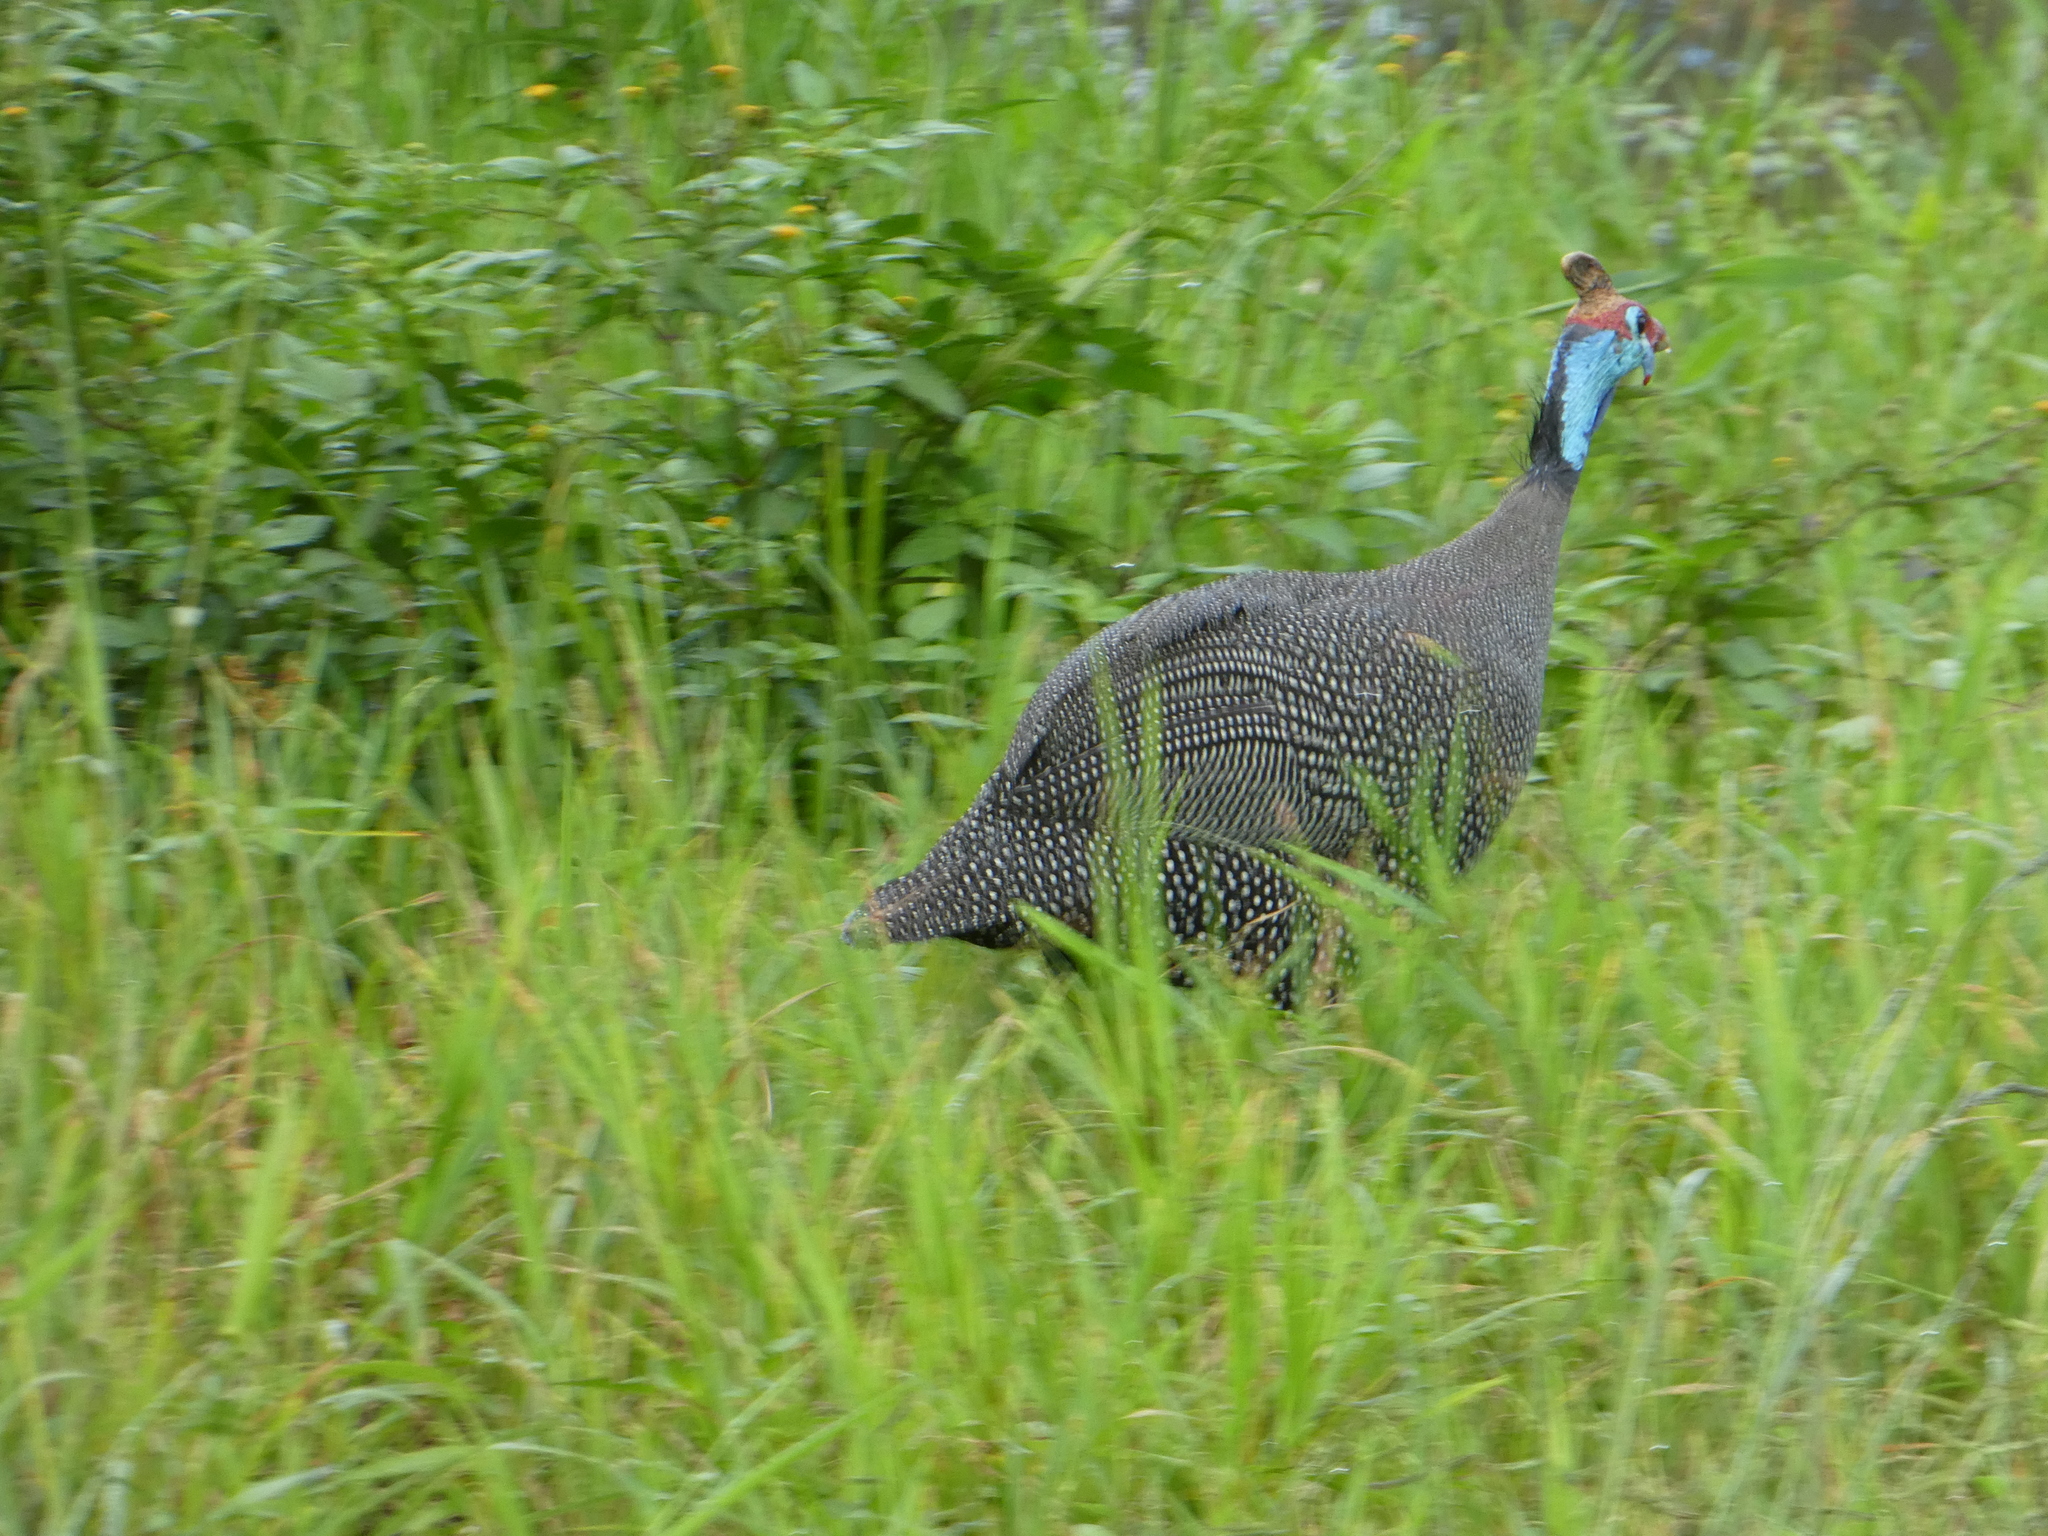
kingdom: Animalia
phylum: Chordata
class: Aves
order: Galliformes
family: Numididae
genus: Numida
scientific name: Numida meleagris
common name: Helmeted guineafowl
